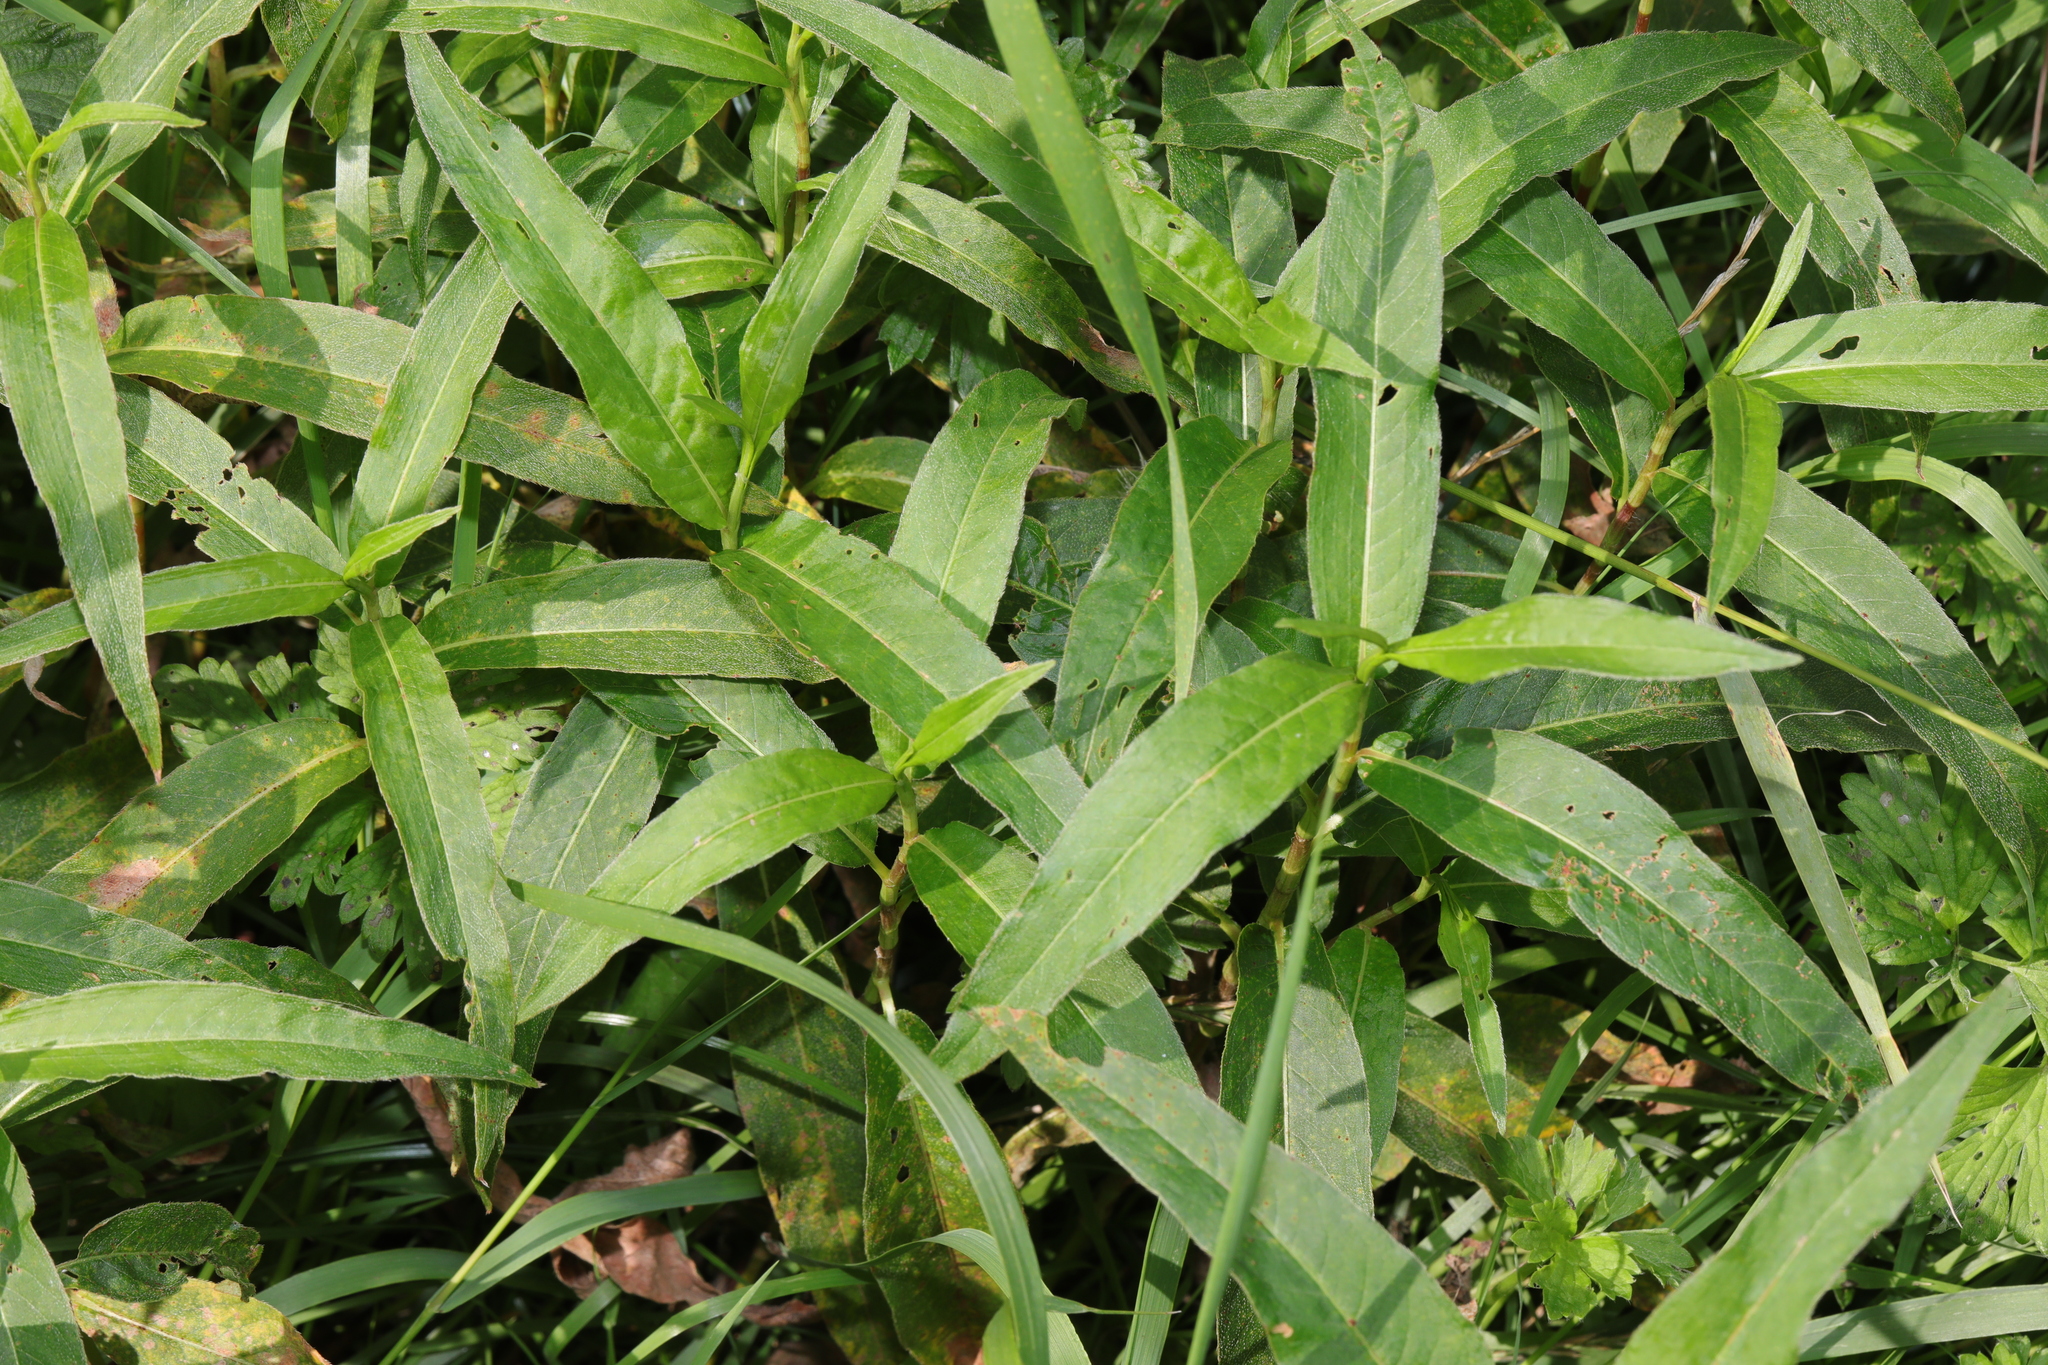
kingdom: Plantae
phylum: Tracheophyta
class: Magnoliopsida
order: Caryophyllales
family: Polygonaceae
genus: Persicaria
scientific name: Persicaria amphibia
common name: Amphibious bistort
